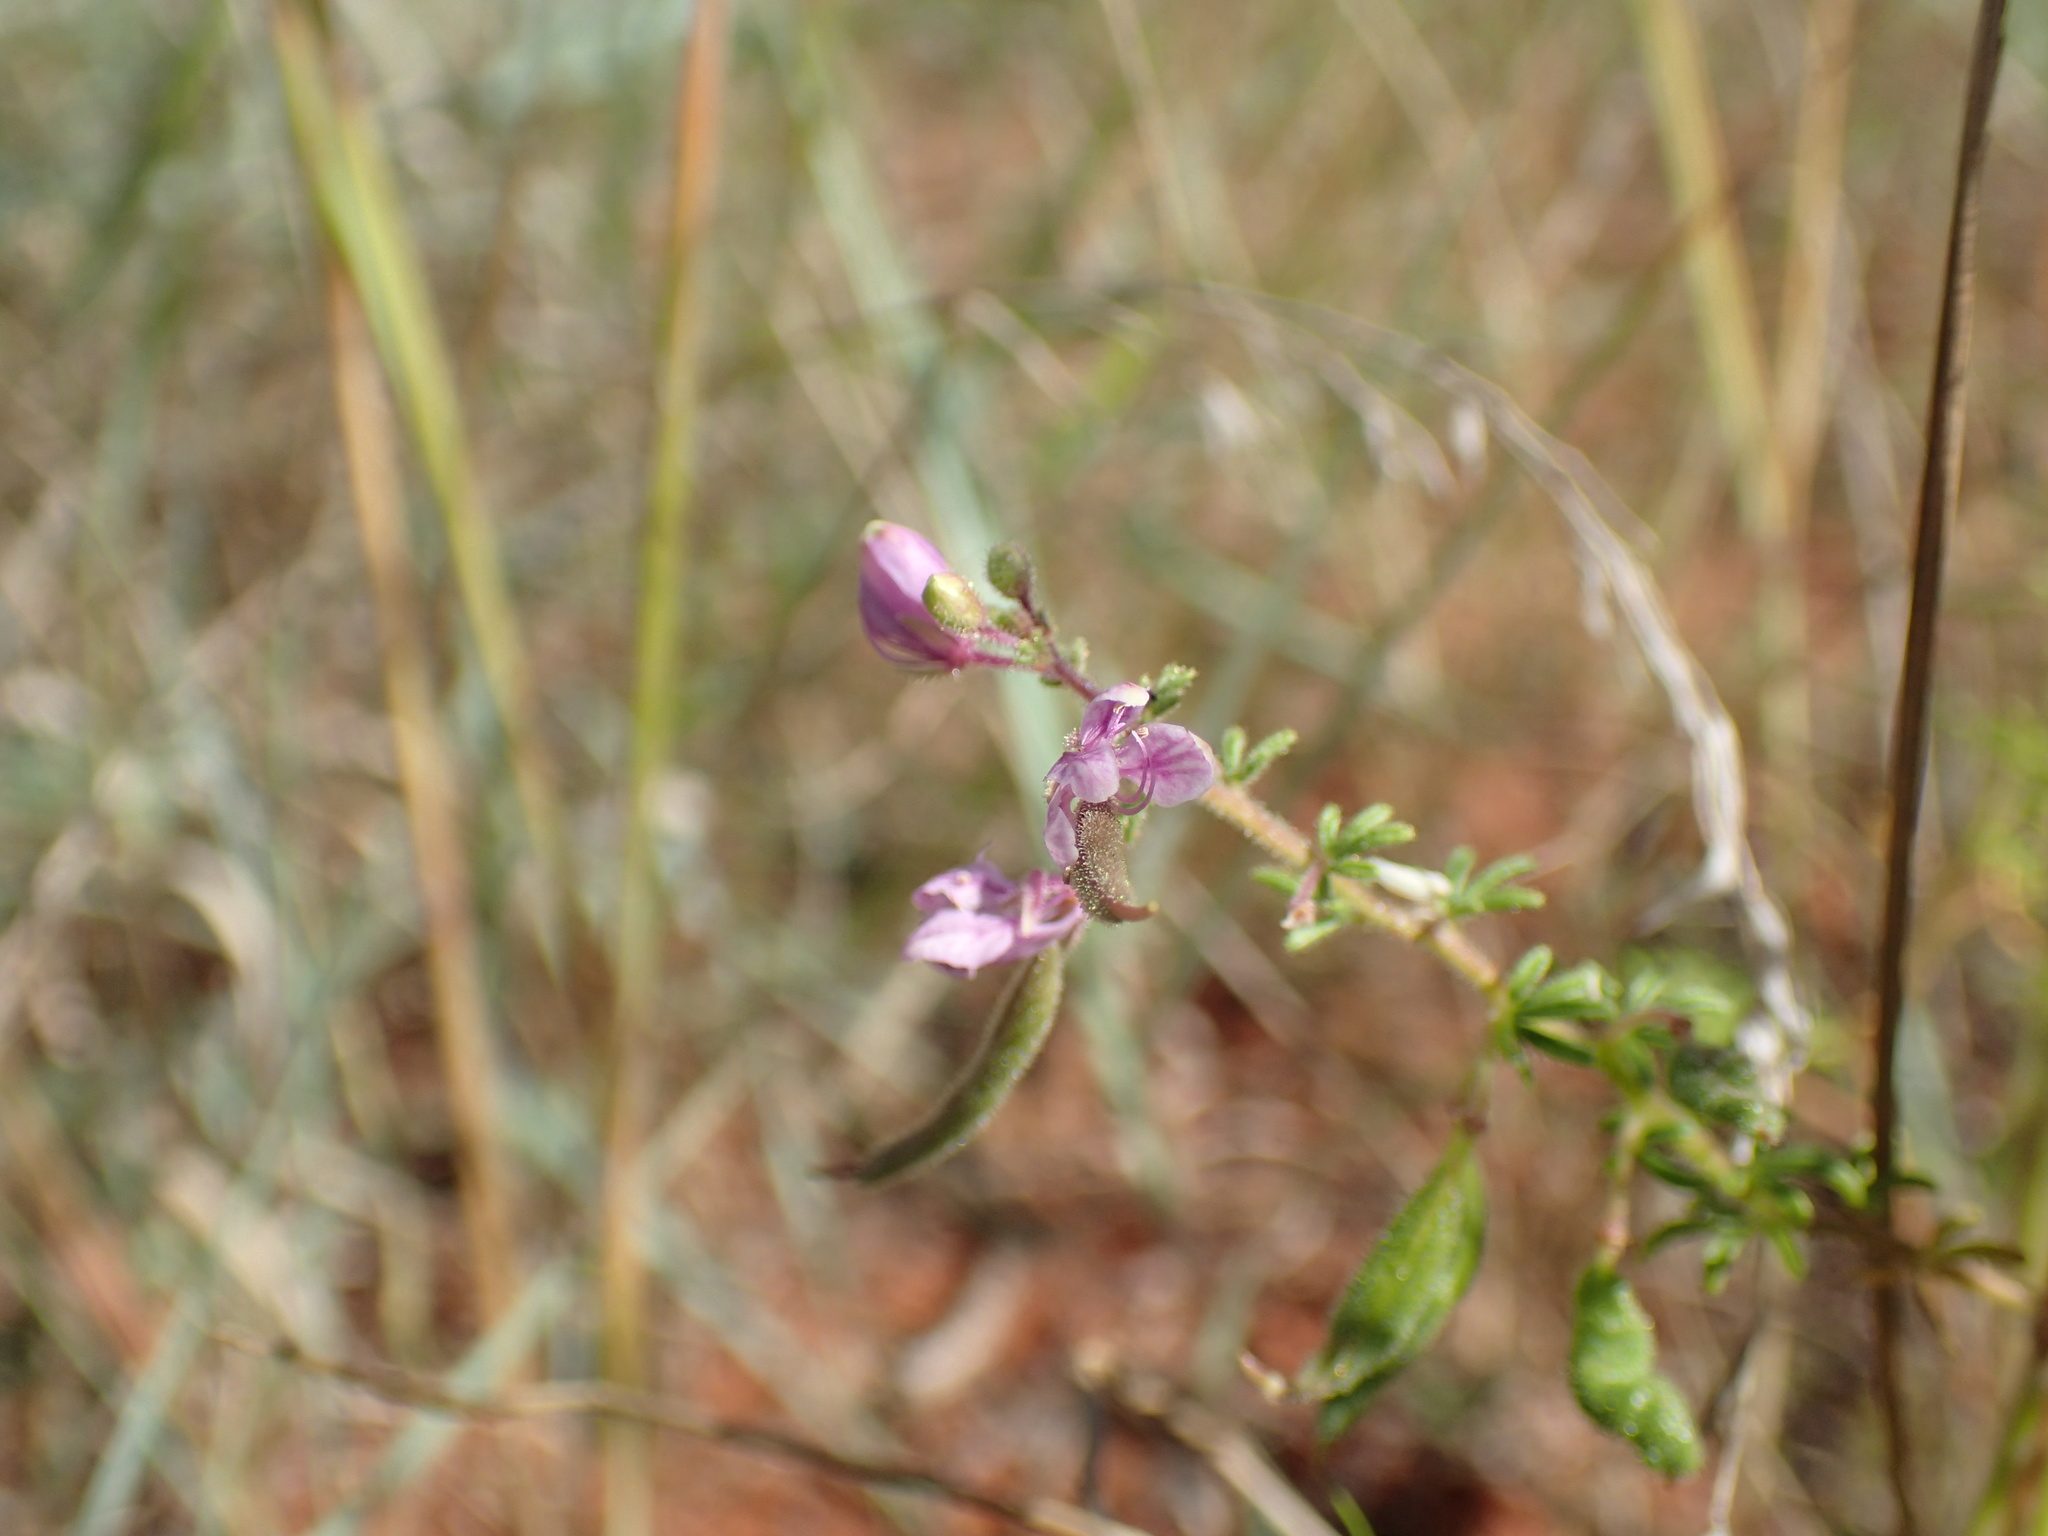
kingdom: Plantae
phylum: Tracheophyta
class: Magnoliopsida
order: Brassicales
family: Cleomaceae
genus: Sieruela
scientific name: Sieruela rubella
